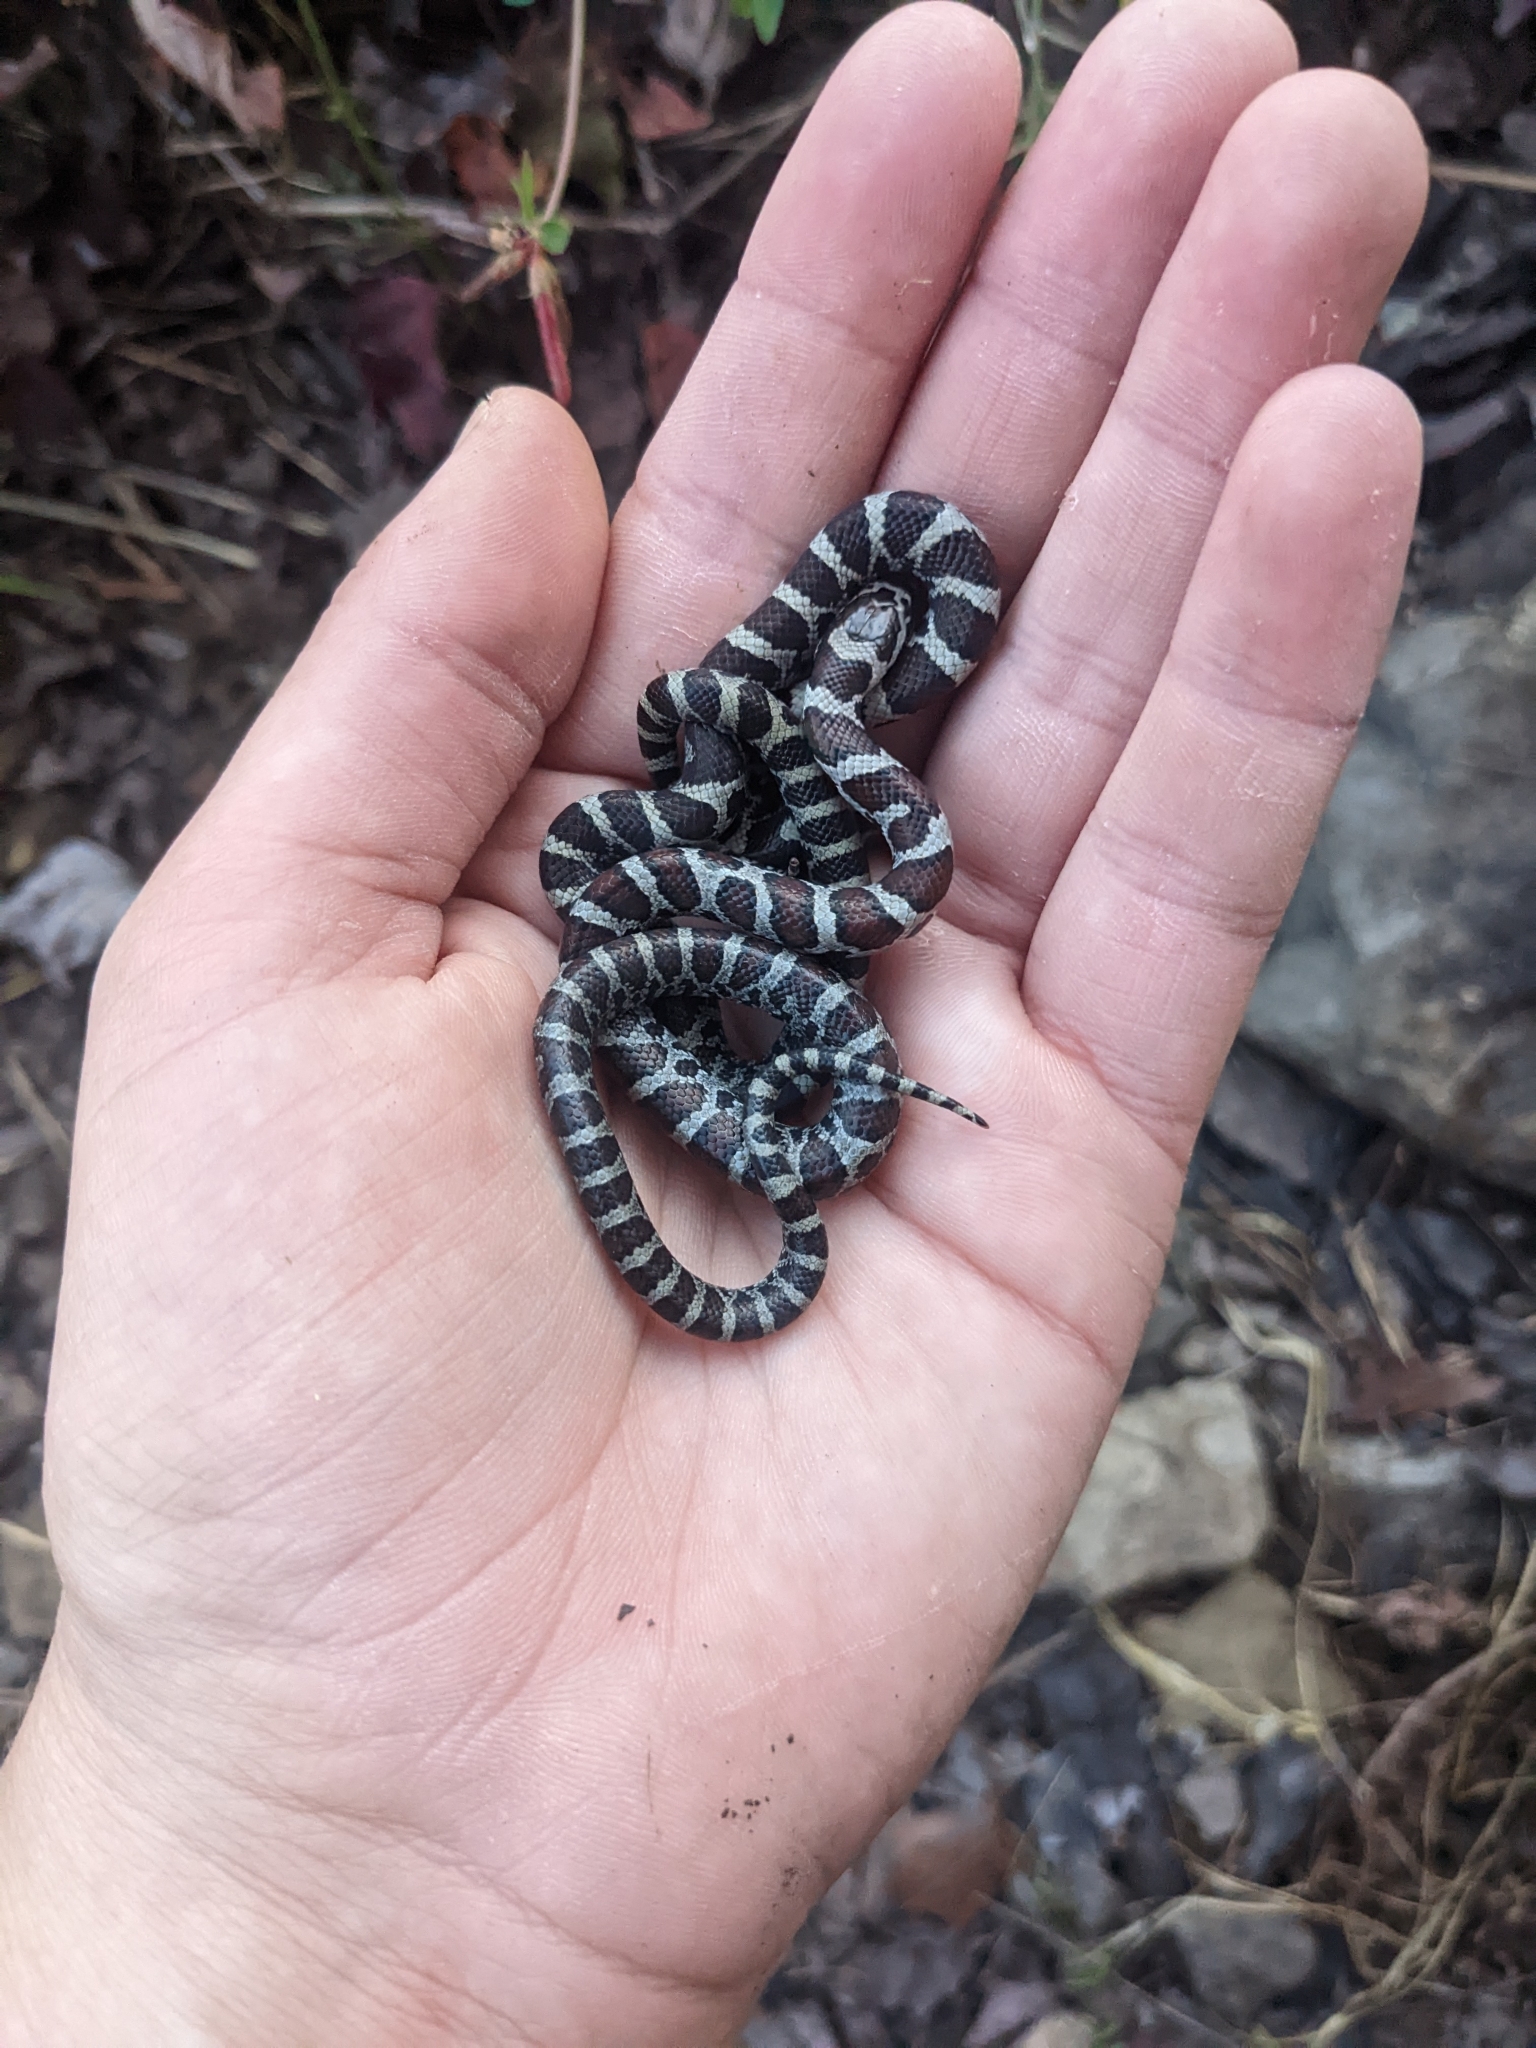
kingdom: Animalia
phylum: Chordata
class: Squamata
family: Colubridae
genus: Lampropeltis
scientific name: Lampropeltis triangulum
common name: Eastern milksnake
